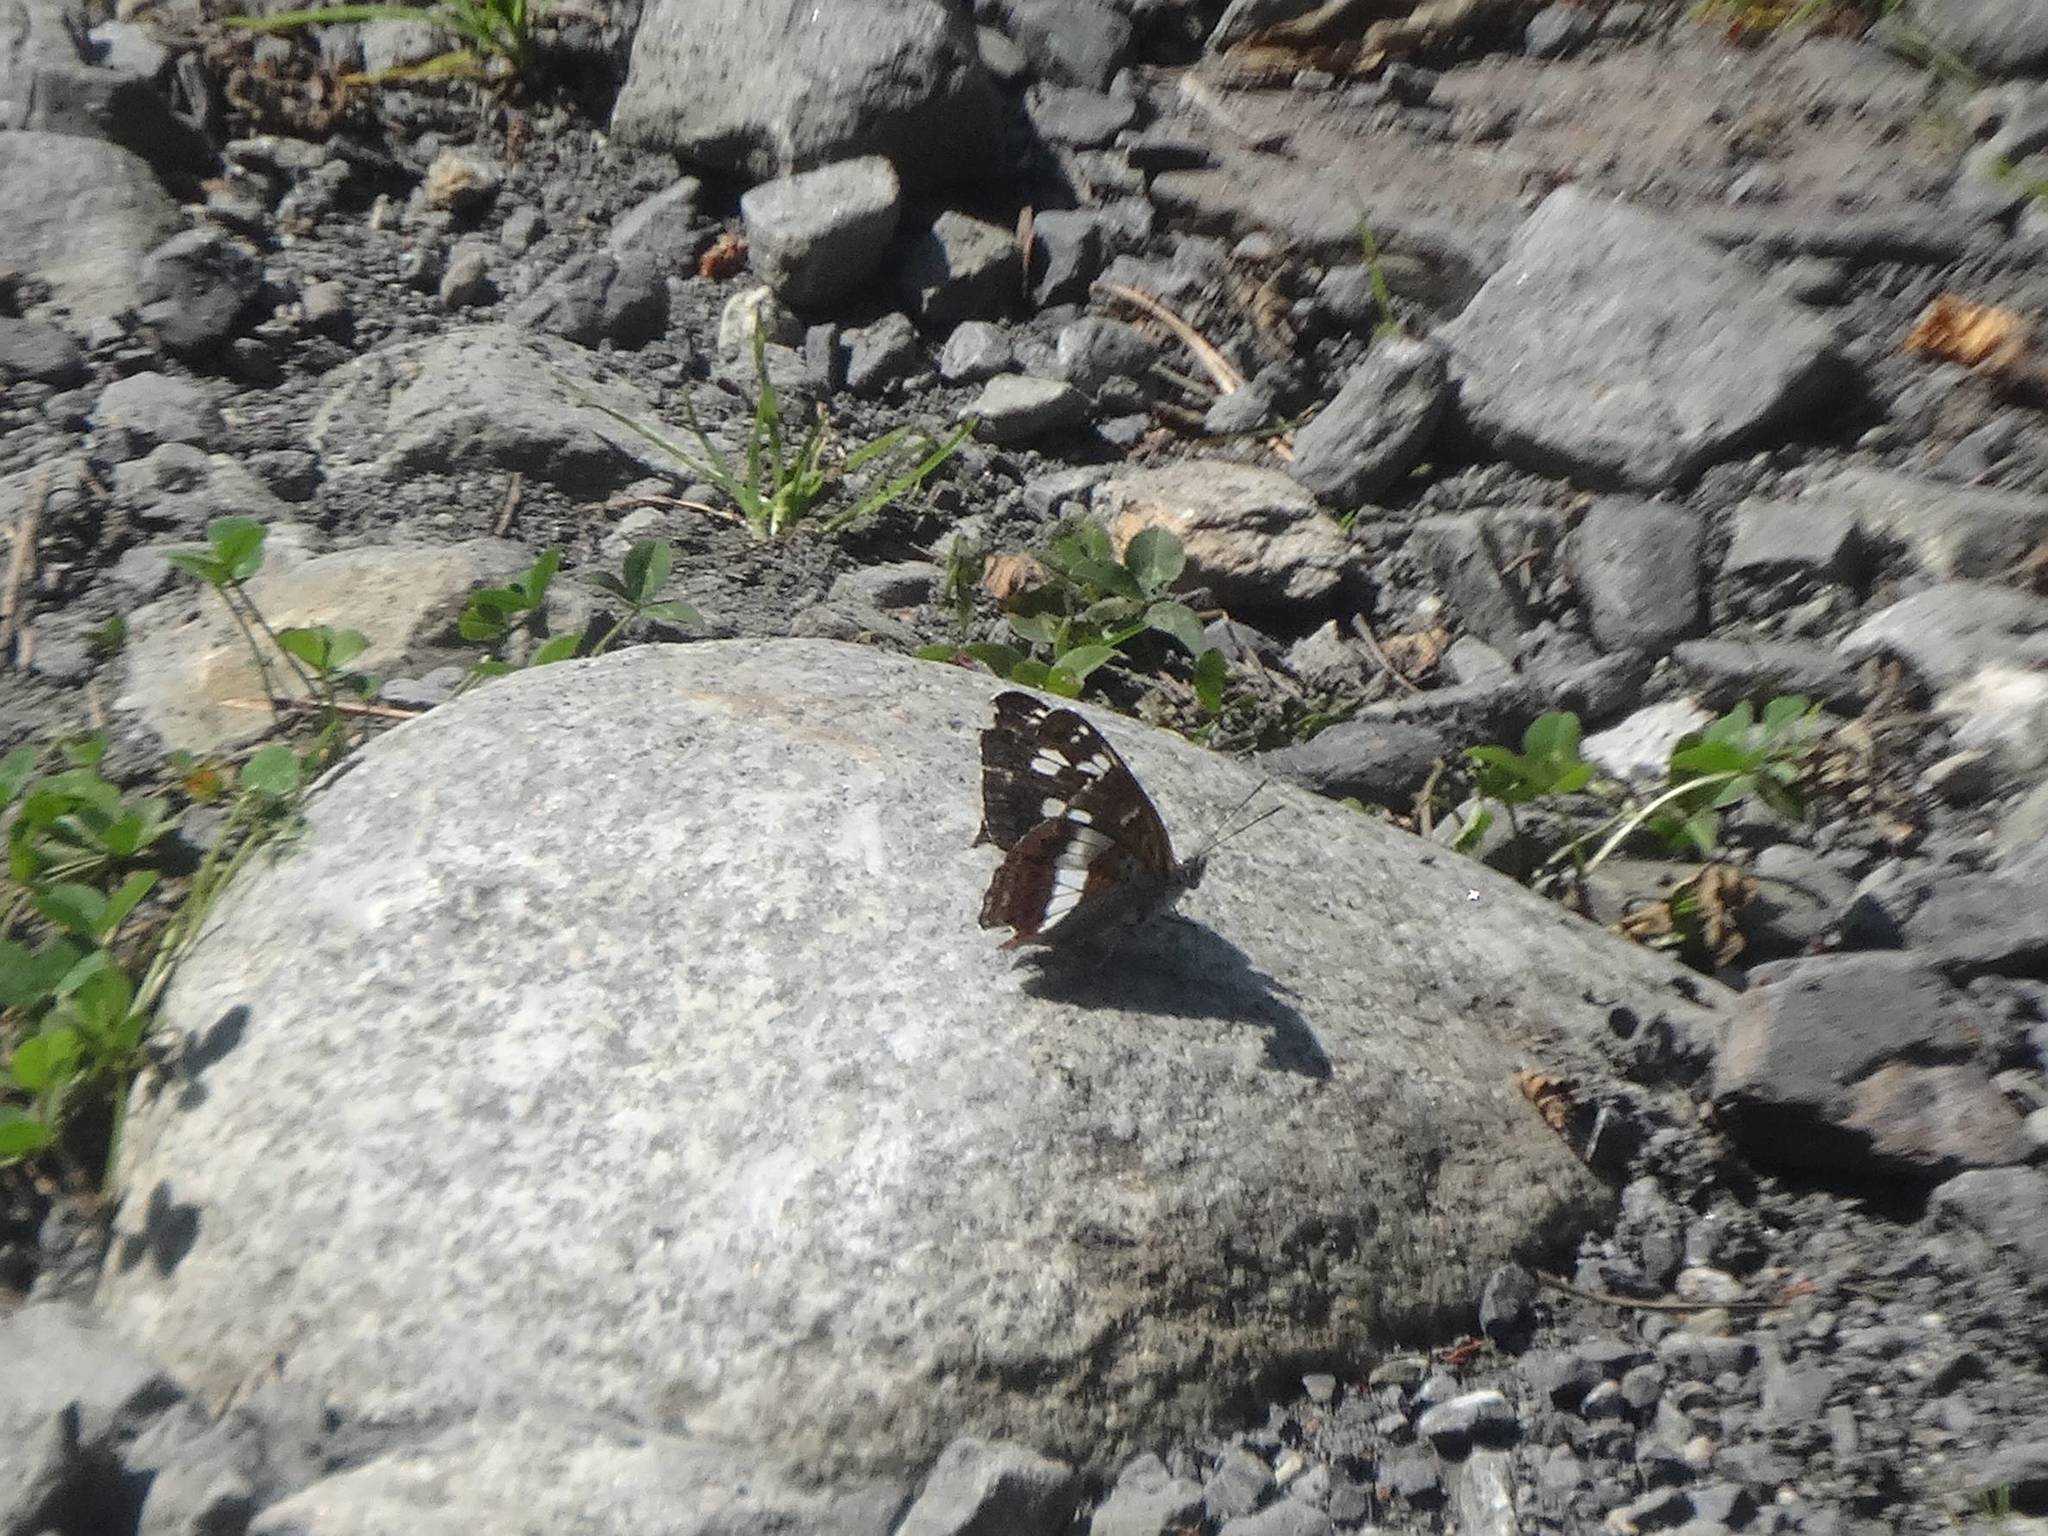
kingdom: Animalia
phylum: Arthropoda
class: Insecta
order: Lepidoptera
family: Nymphalidae
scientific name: Nymphalidae
